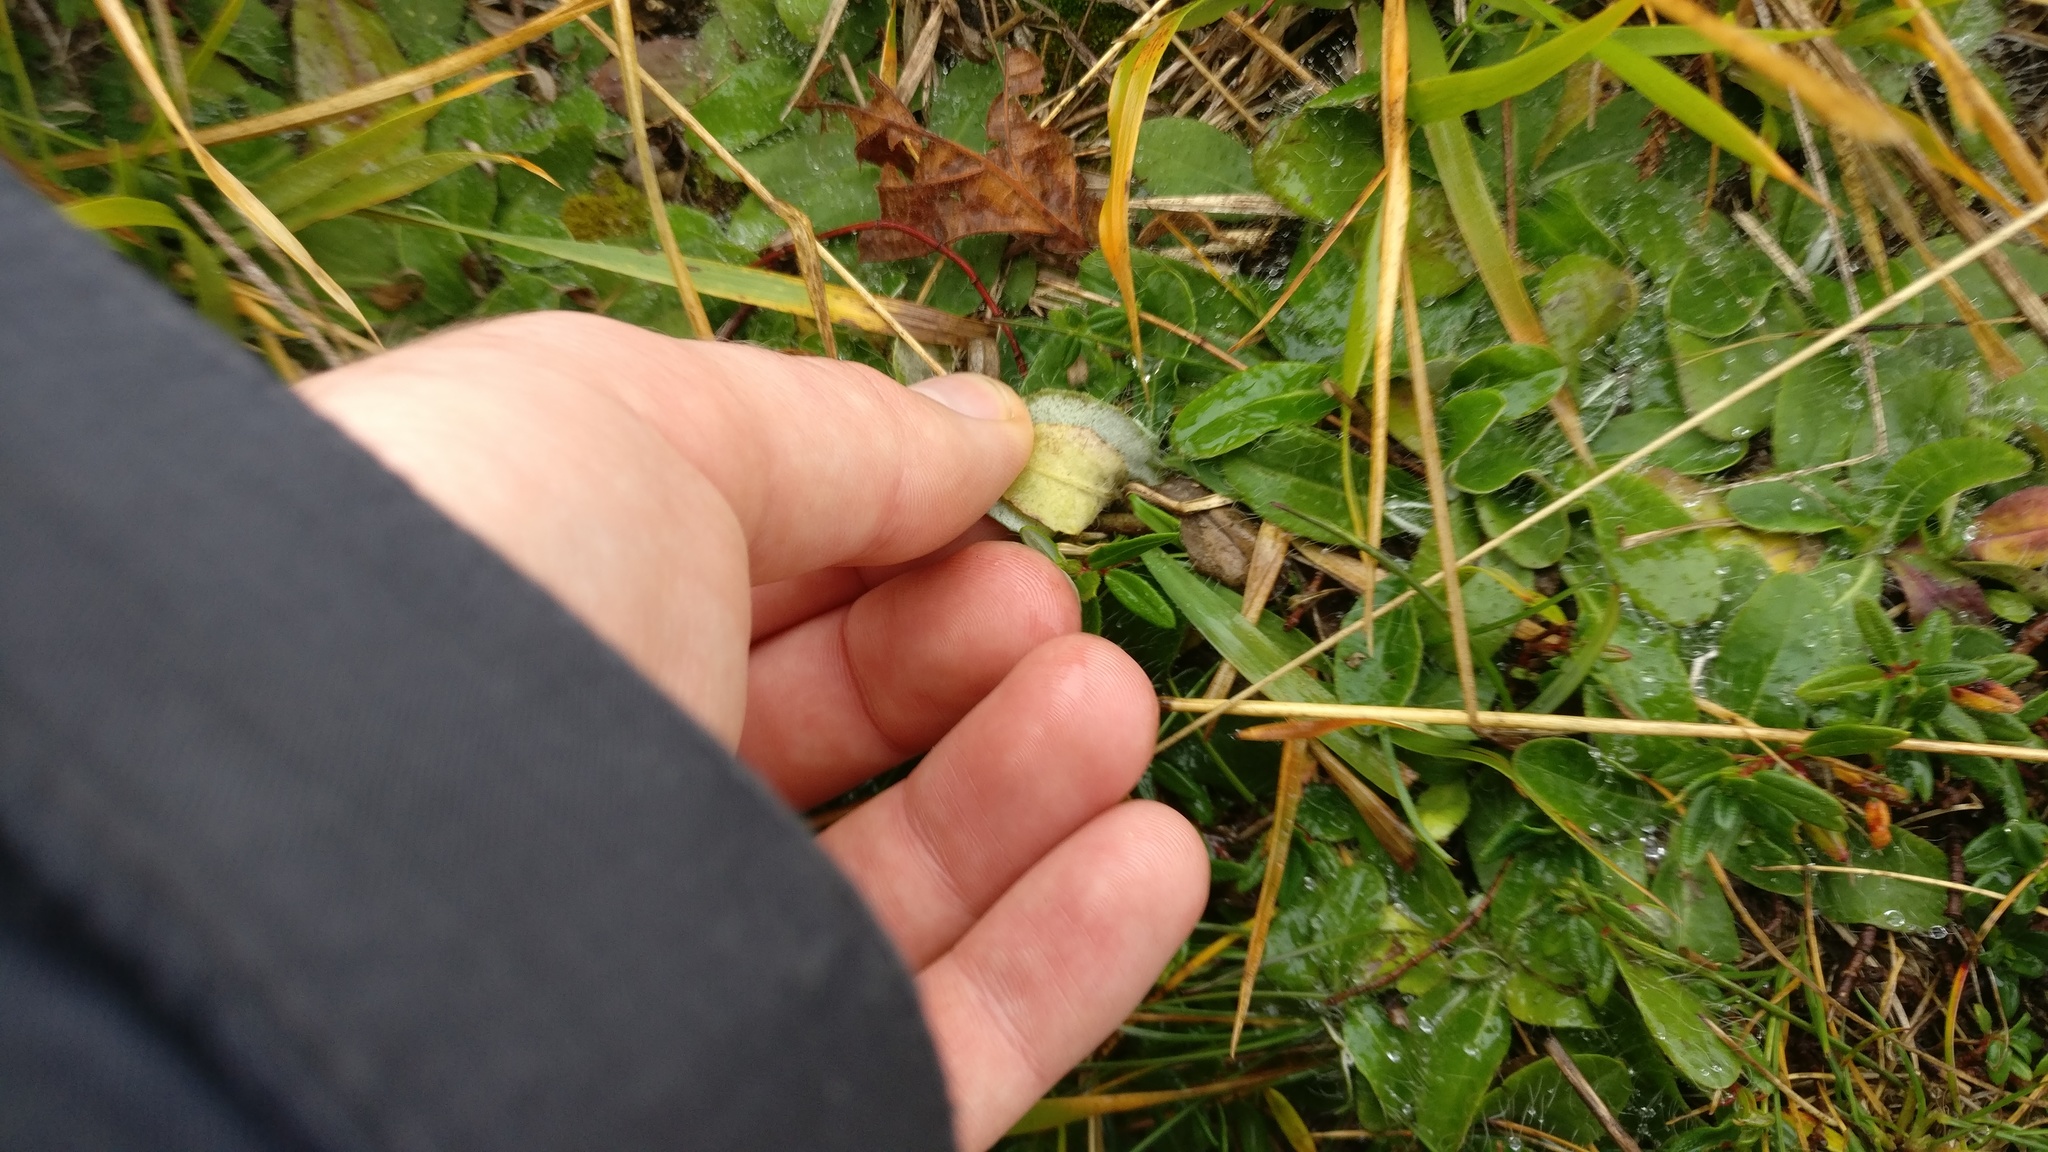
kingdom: Plantae
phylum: Tracheophyta
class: Magnoliopsida
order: Asterales
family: Asteraceae
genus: Pilosella
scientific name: Pilosella officinarum
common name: Mouse-ear hawkweed
